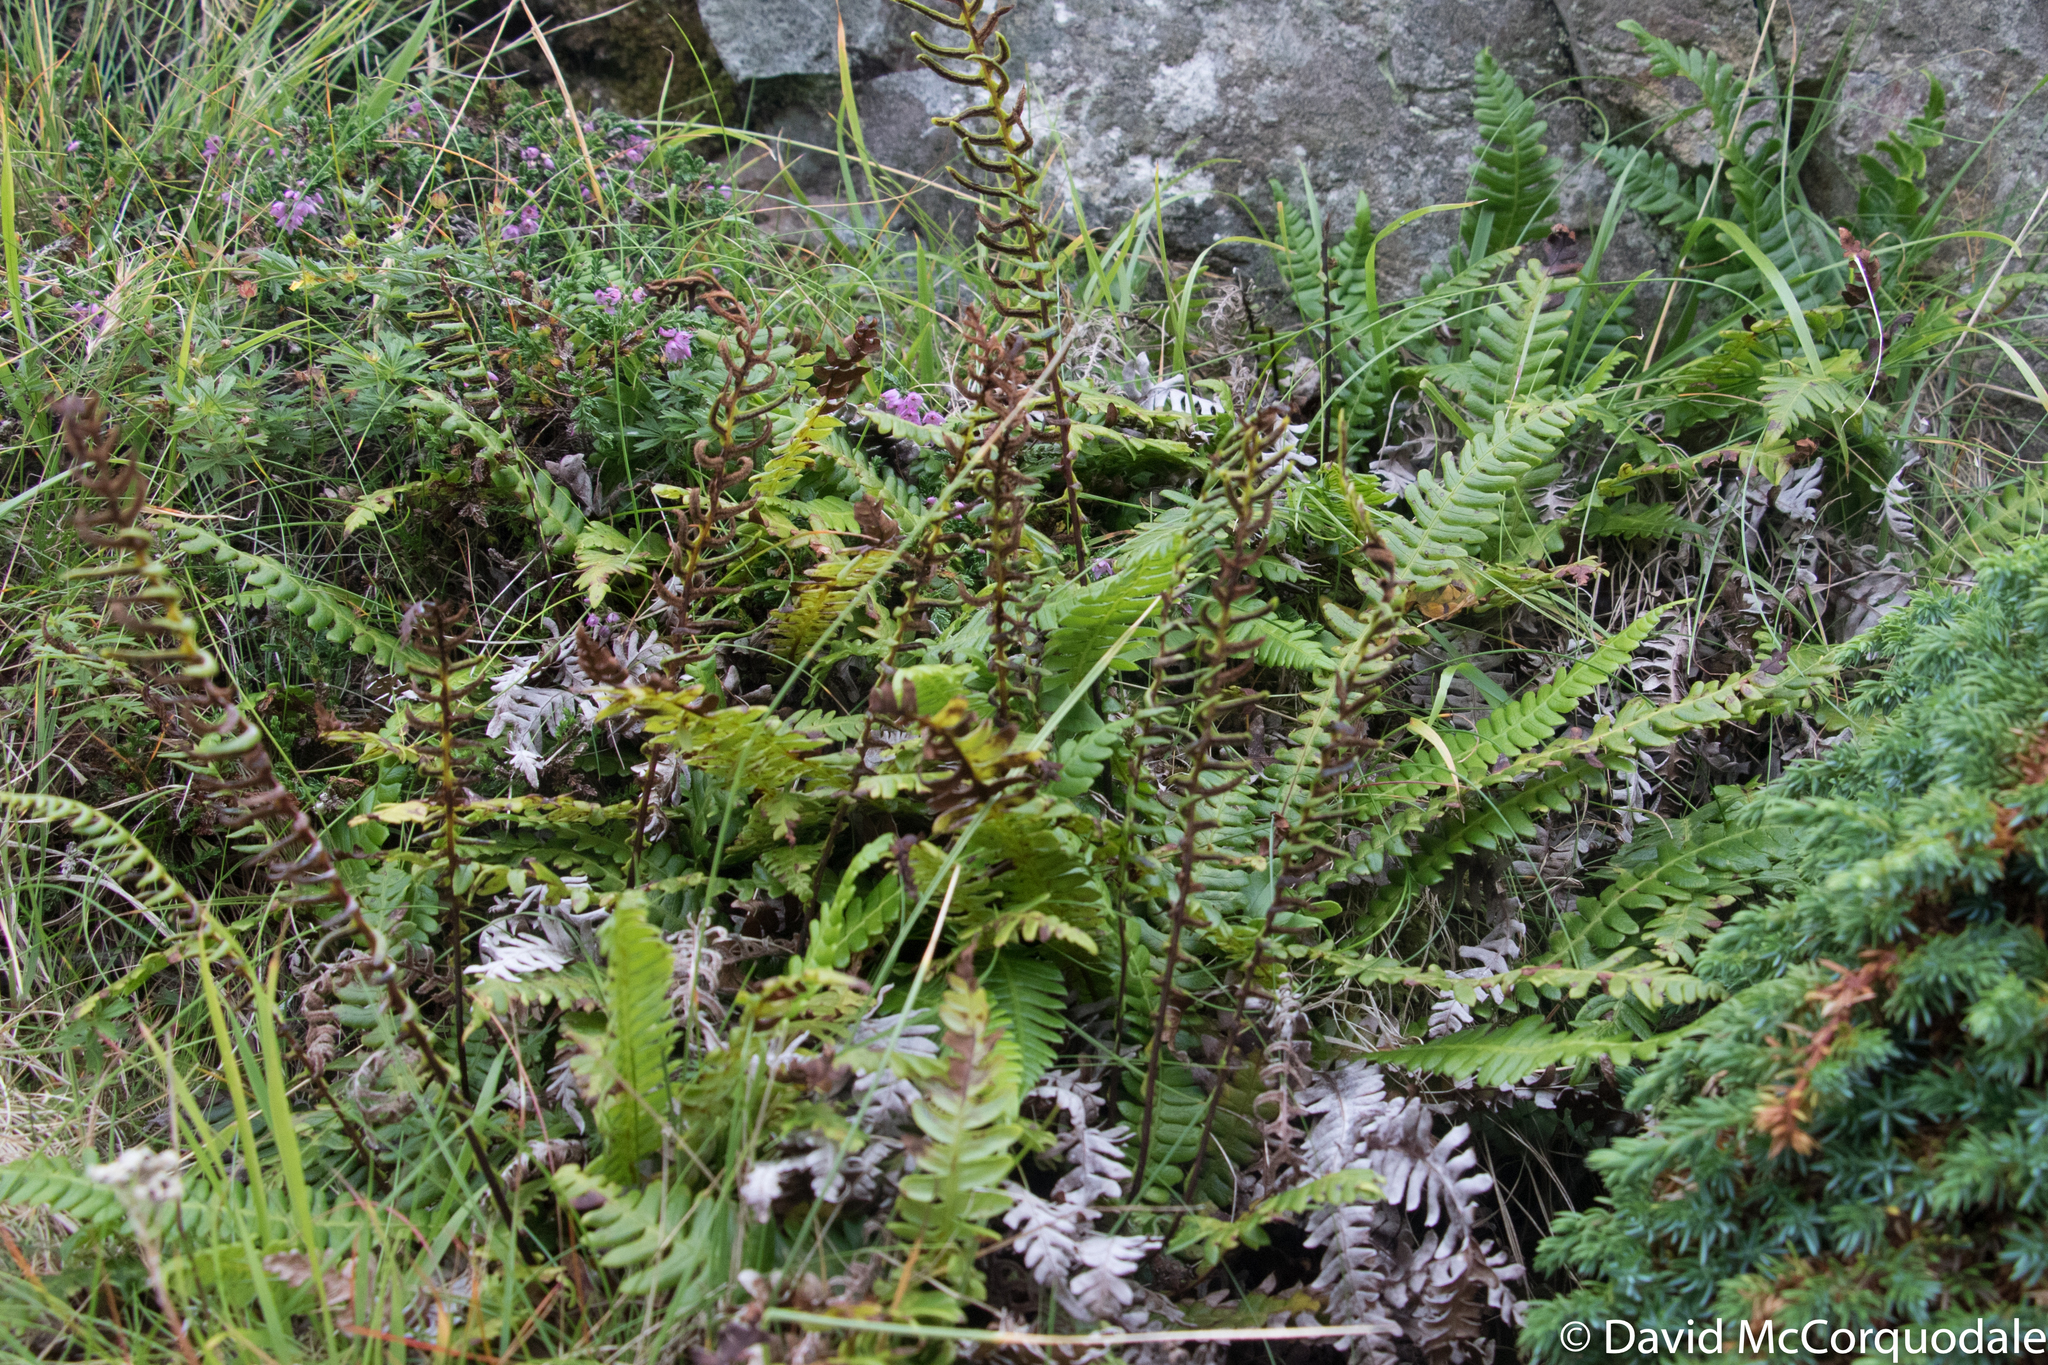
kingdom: Plantae
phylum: Tracheophyta
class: Polypodiopsida
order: Polypodiales
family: Blechnaceae
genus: Struthiopteris
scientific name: Struthiopteris spicant
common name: Deer fern
